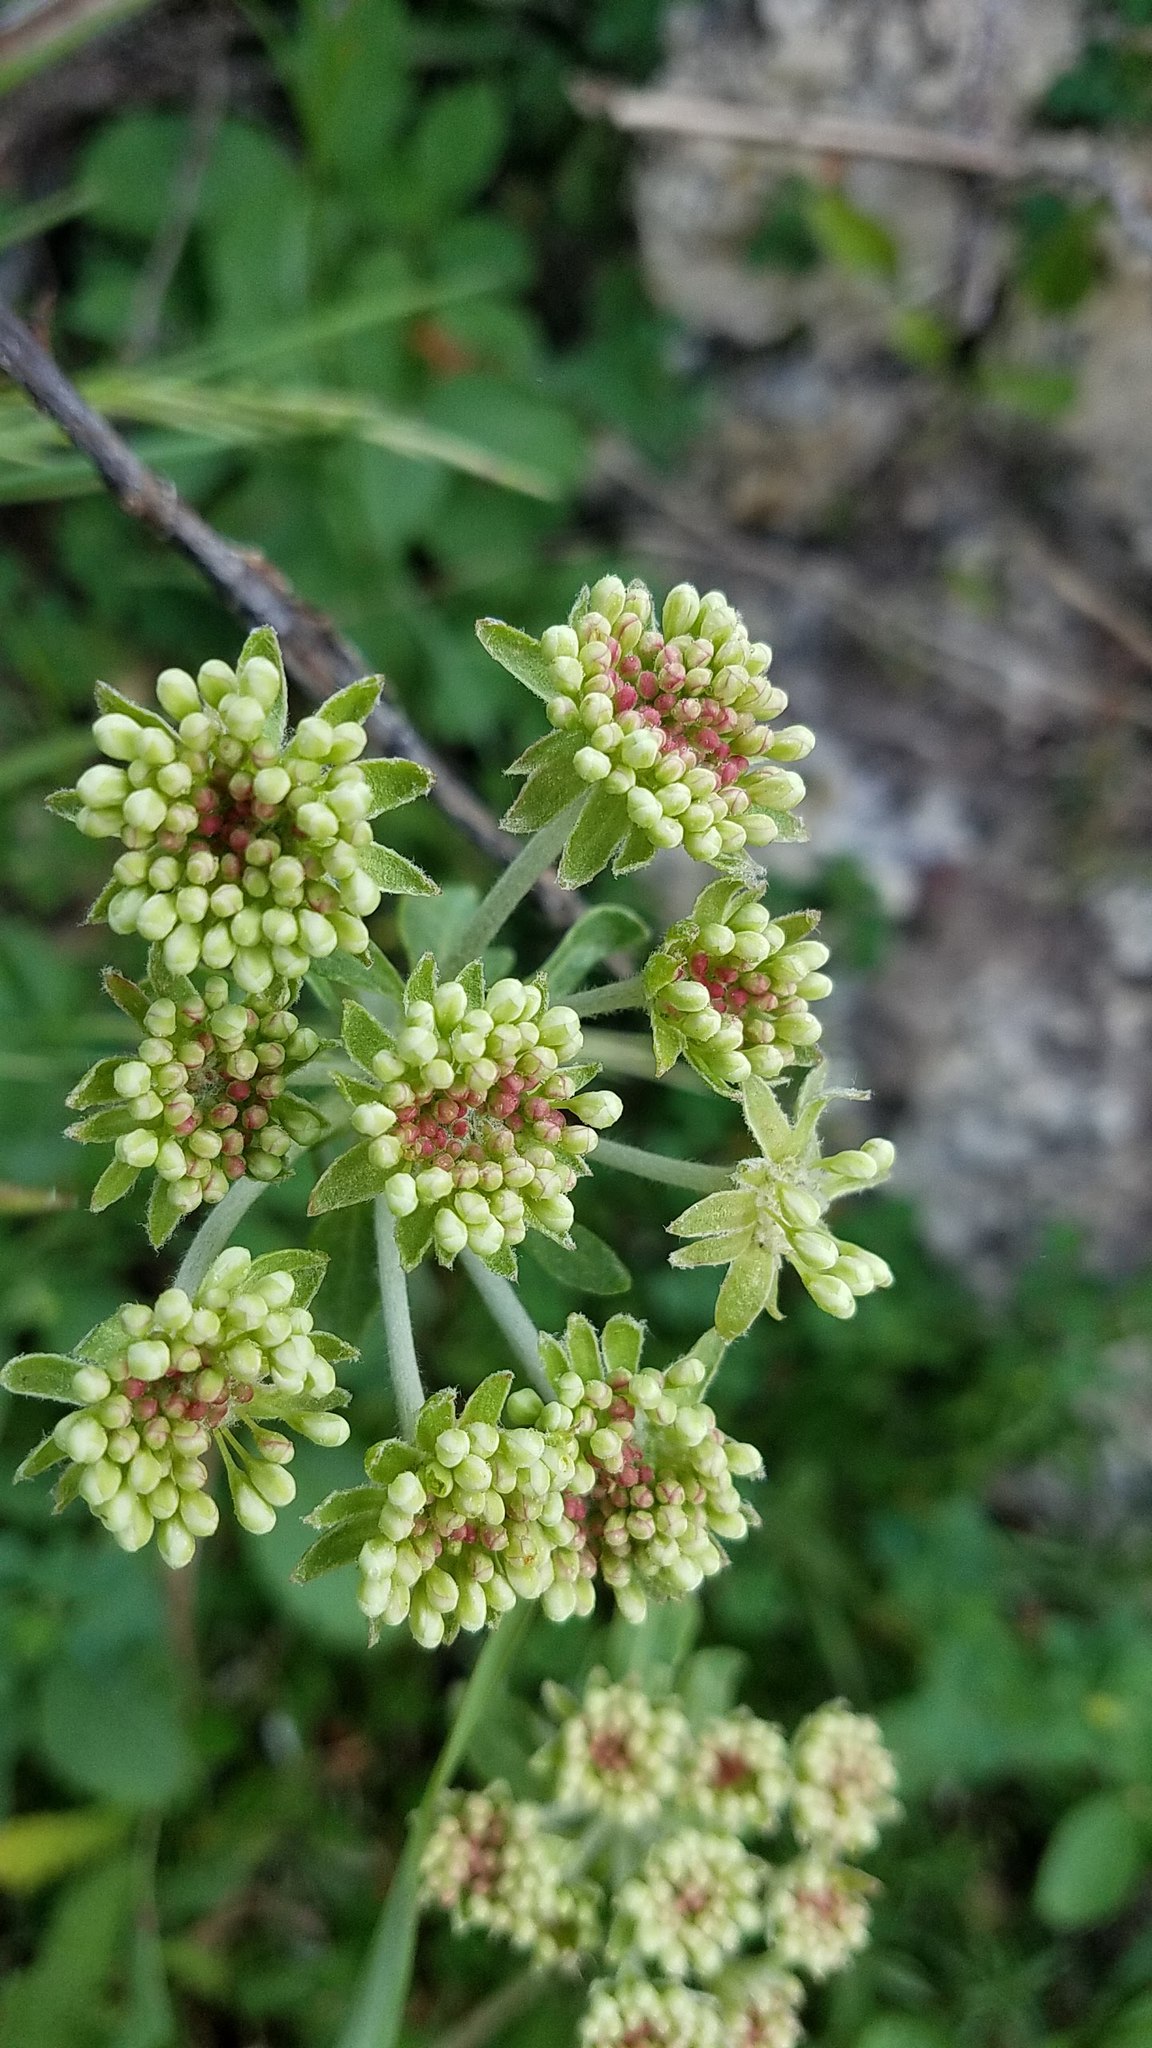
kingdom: Plantae
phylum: Tracheophyta
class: Magnoliopsida
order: Caryophyllales
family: Polygonaceae
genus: Eriogonum
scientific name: Eriogonum umbellatum
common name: Sulfur-buckwheat
